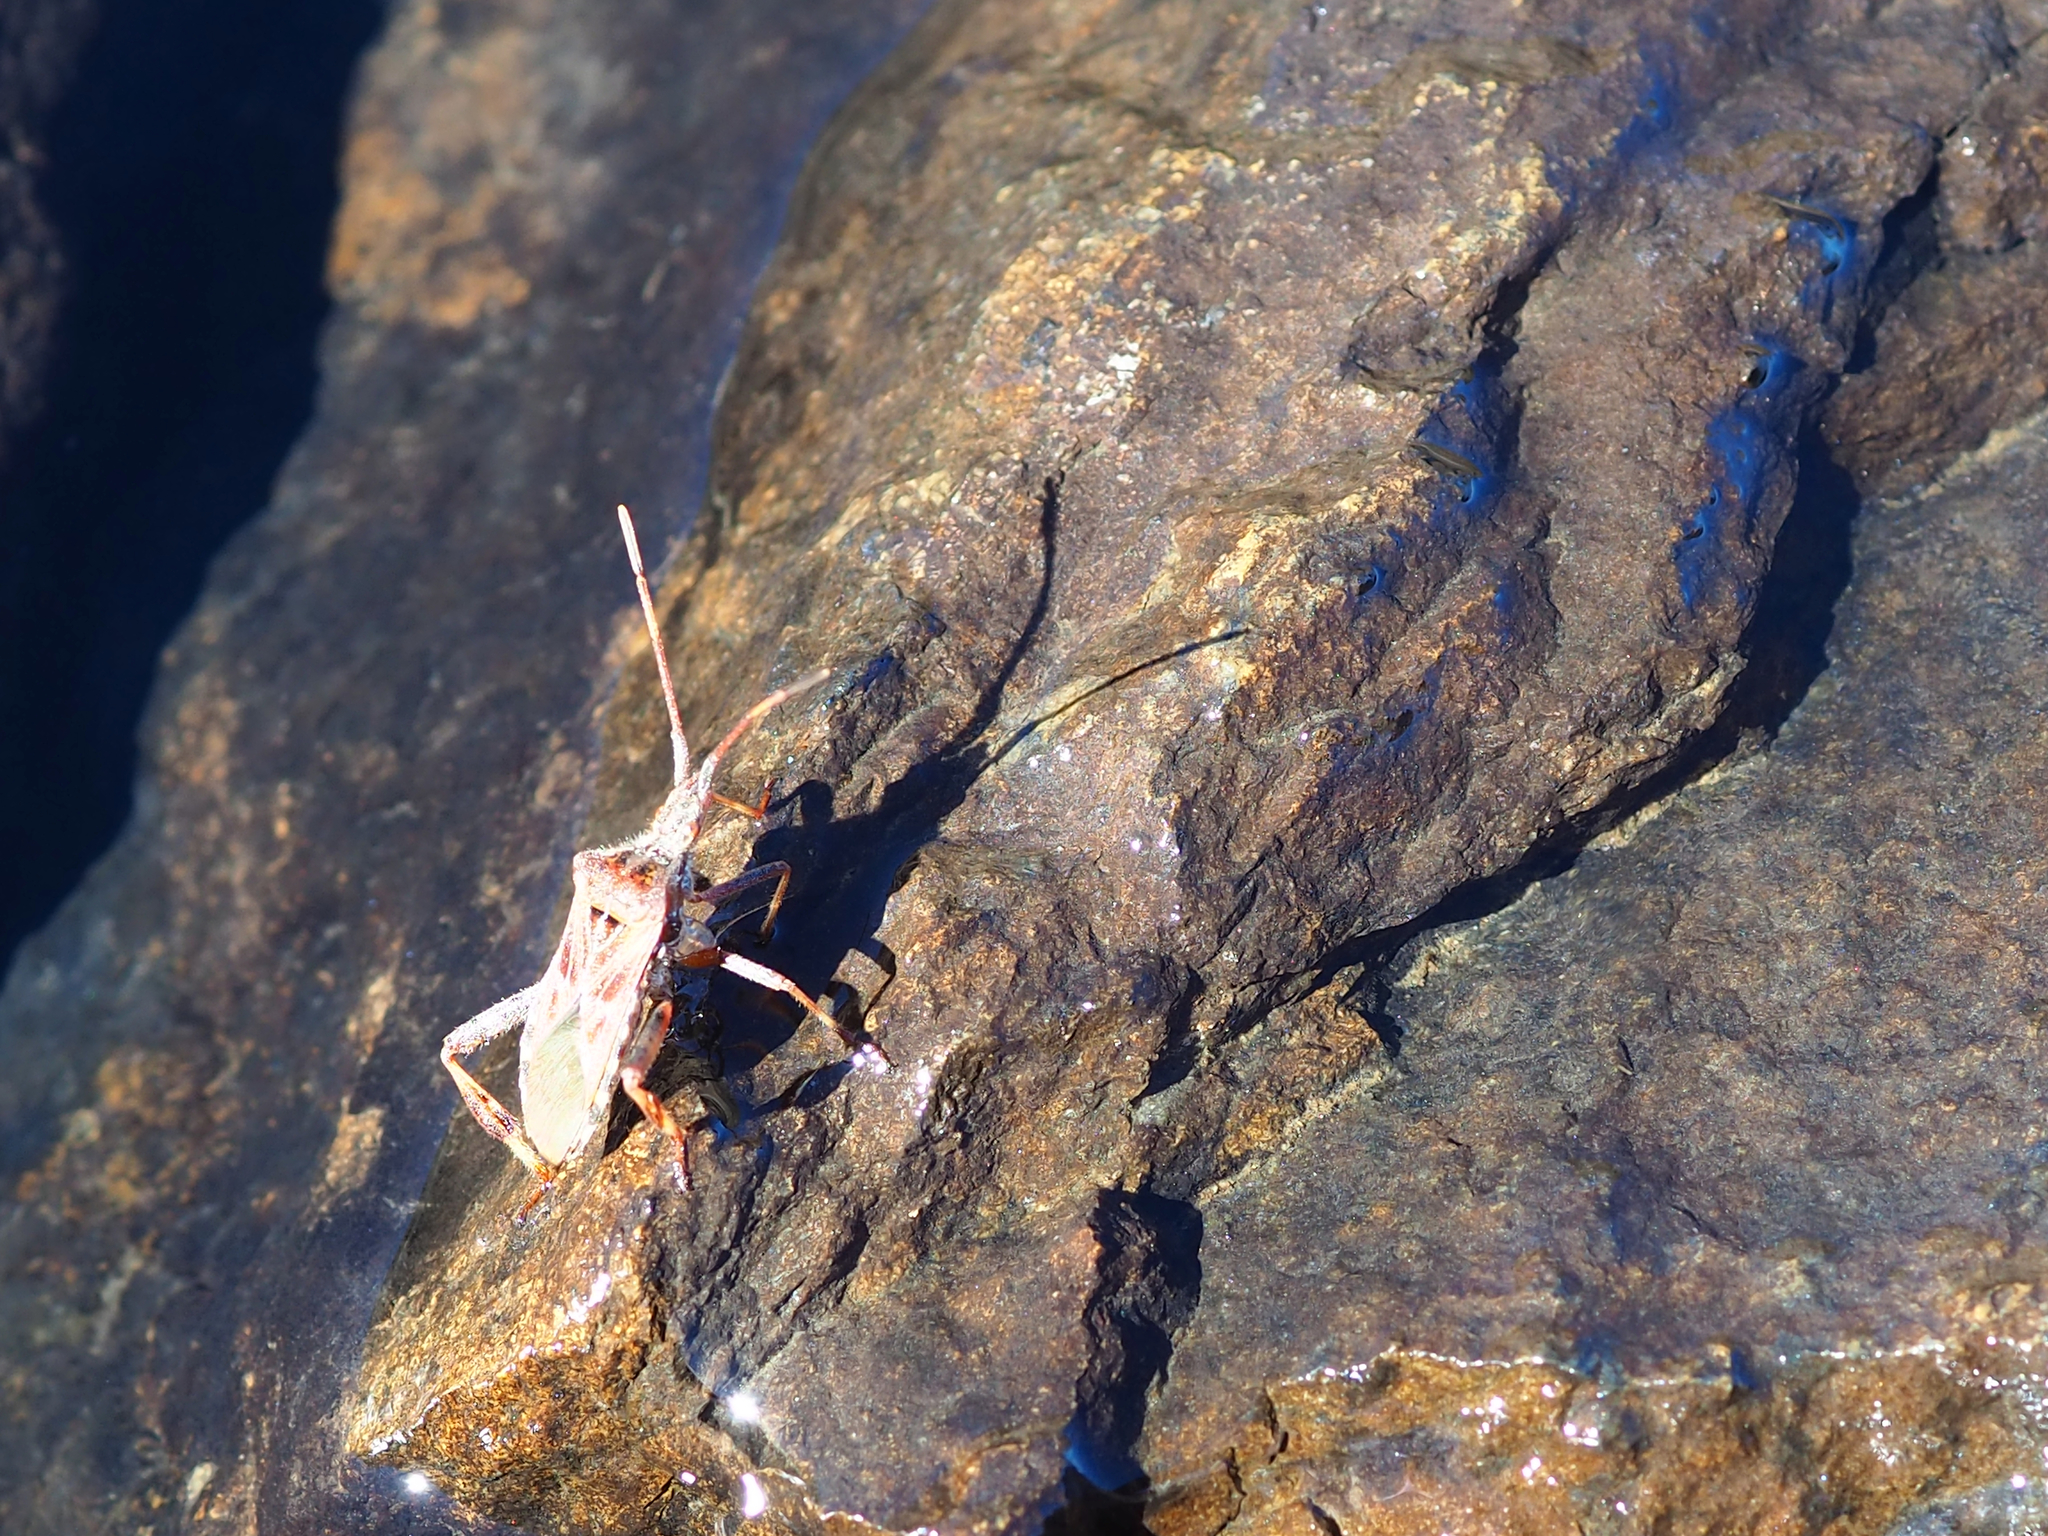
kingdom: Animalia
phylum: Arthropoda
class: Insecta
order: Hemiptera
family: Coreidae
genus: Leptoglossus
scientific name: Leptoglossus occidentalis
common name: Western conifer-seed bug
